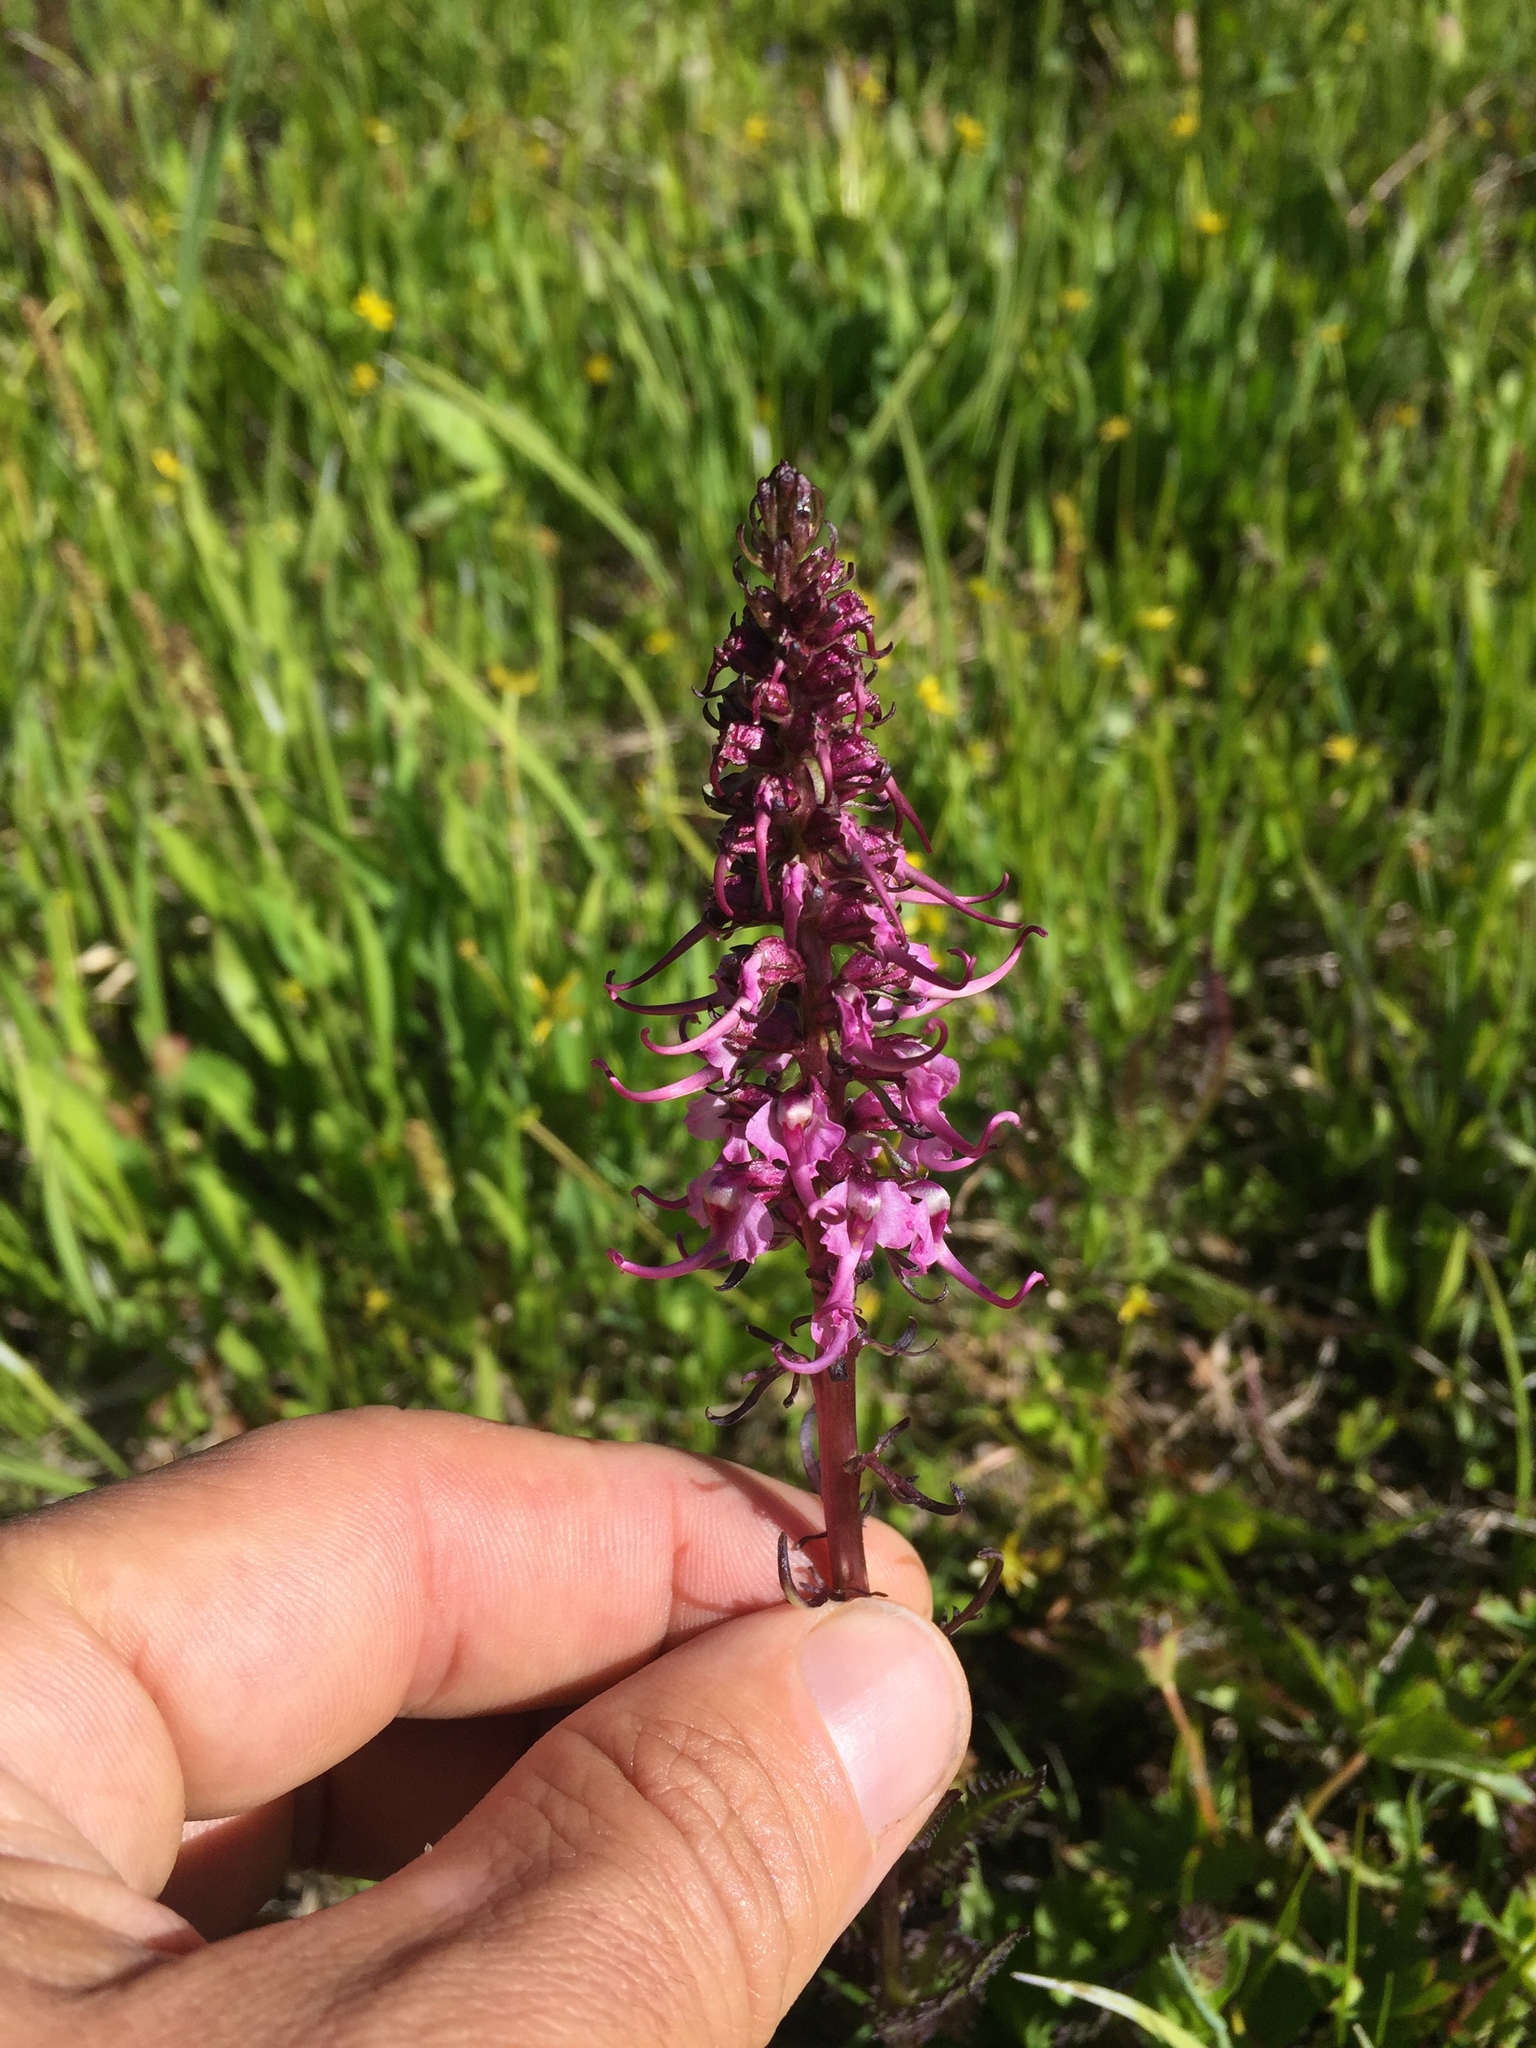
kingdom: Plantae
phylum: Tracheophyta
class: Magnoliopsida
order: Lamiales
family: Orobanchaceae
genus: Pedicularis
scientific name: Pedicularis groenlandica
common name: Elephant's-head
